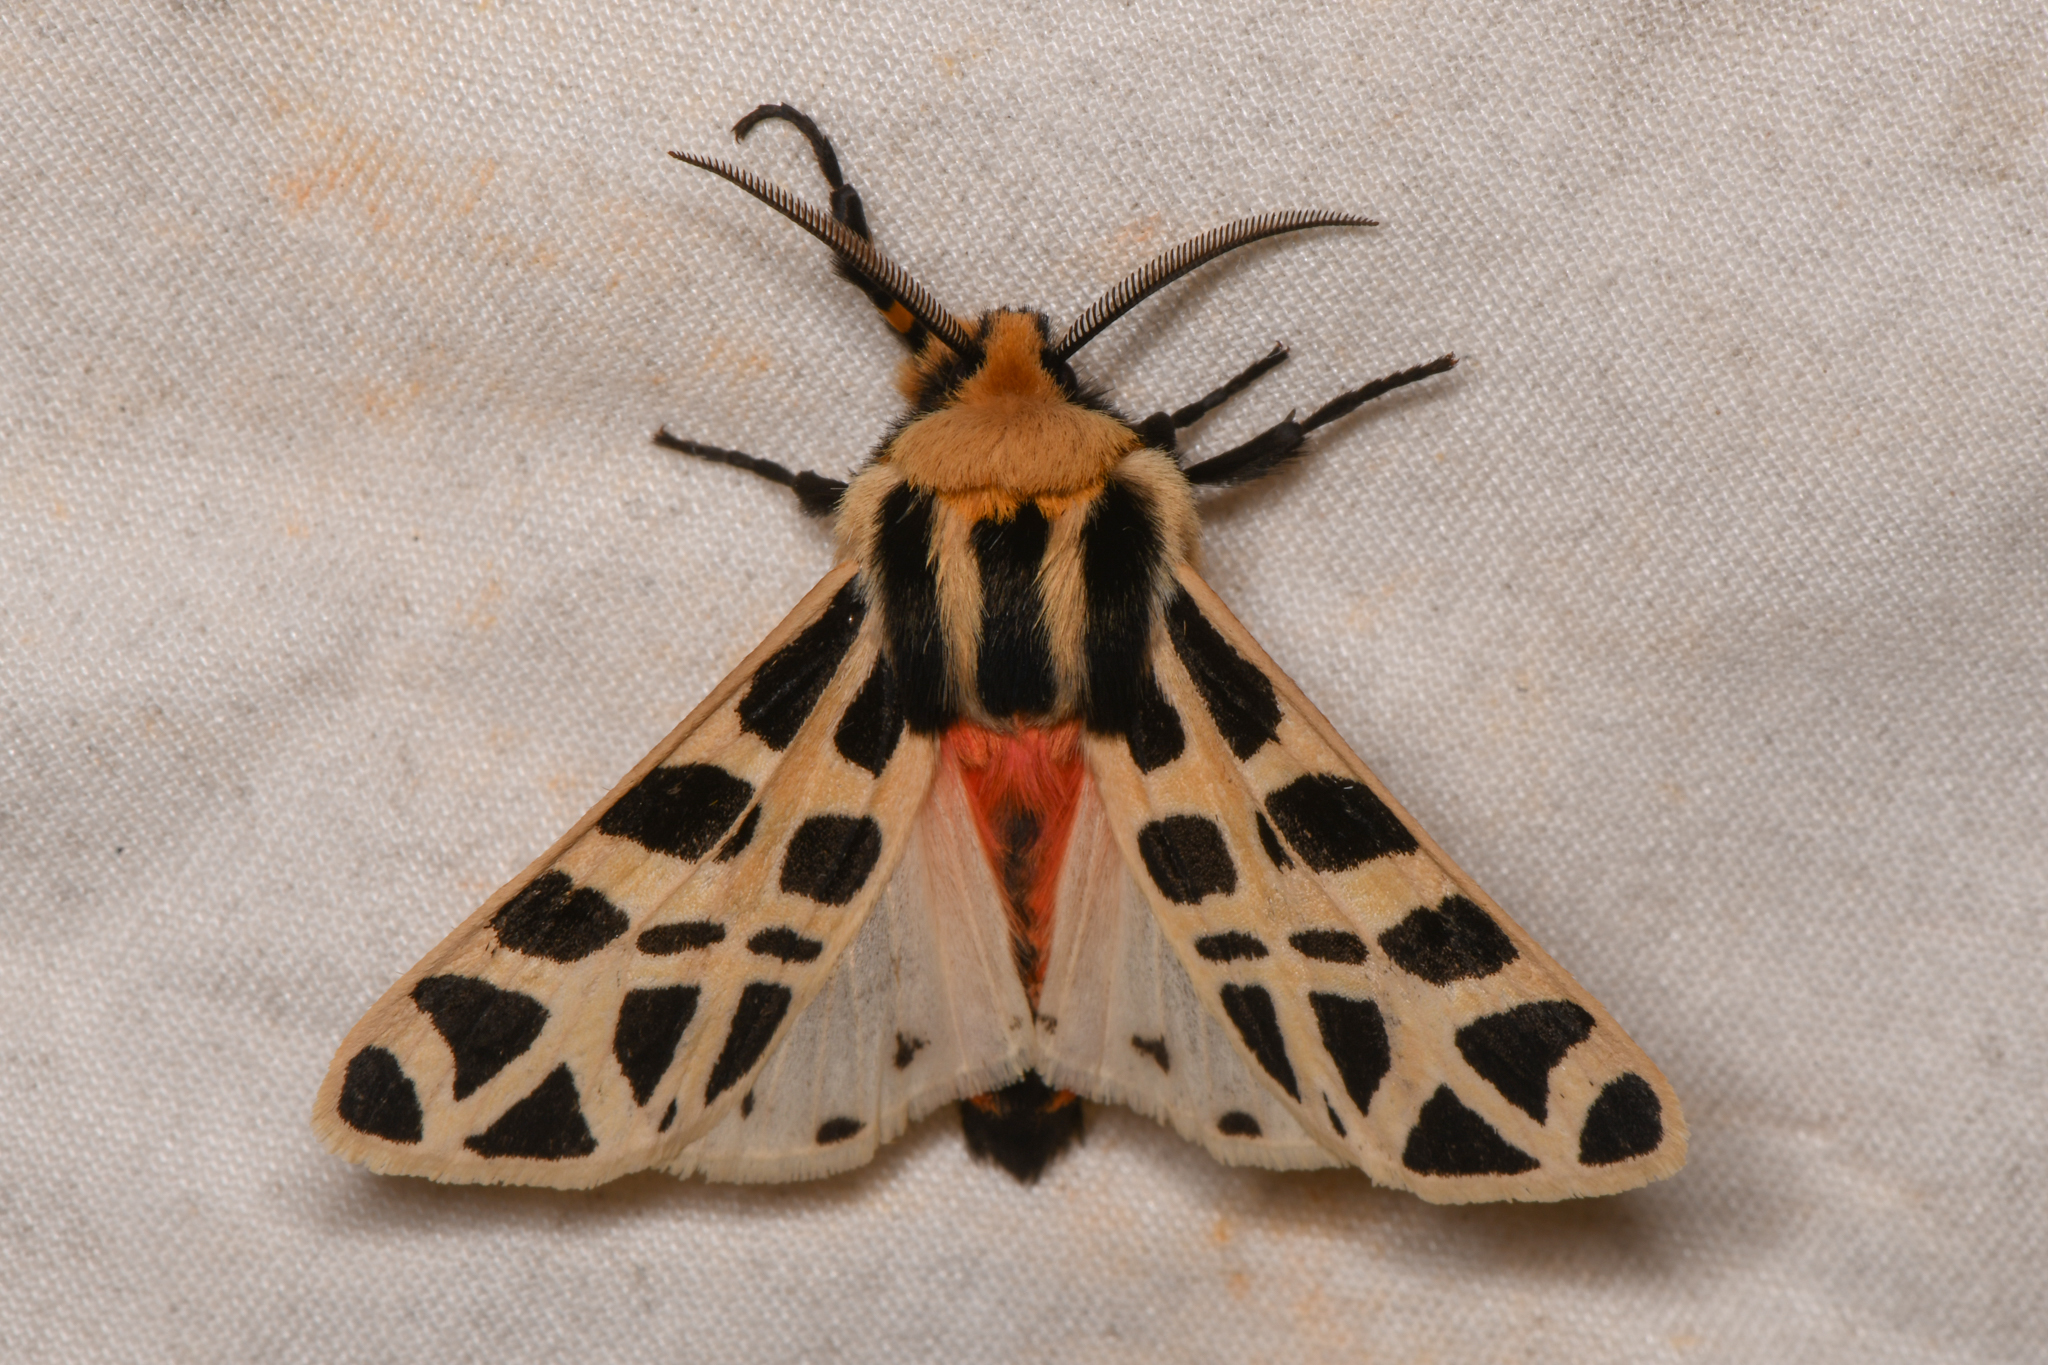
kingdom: Animalia
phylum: Arthropoda
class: Insecta
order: Lepidoptera
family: Erebidae
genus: Apantesis
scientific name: Apantesis
